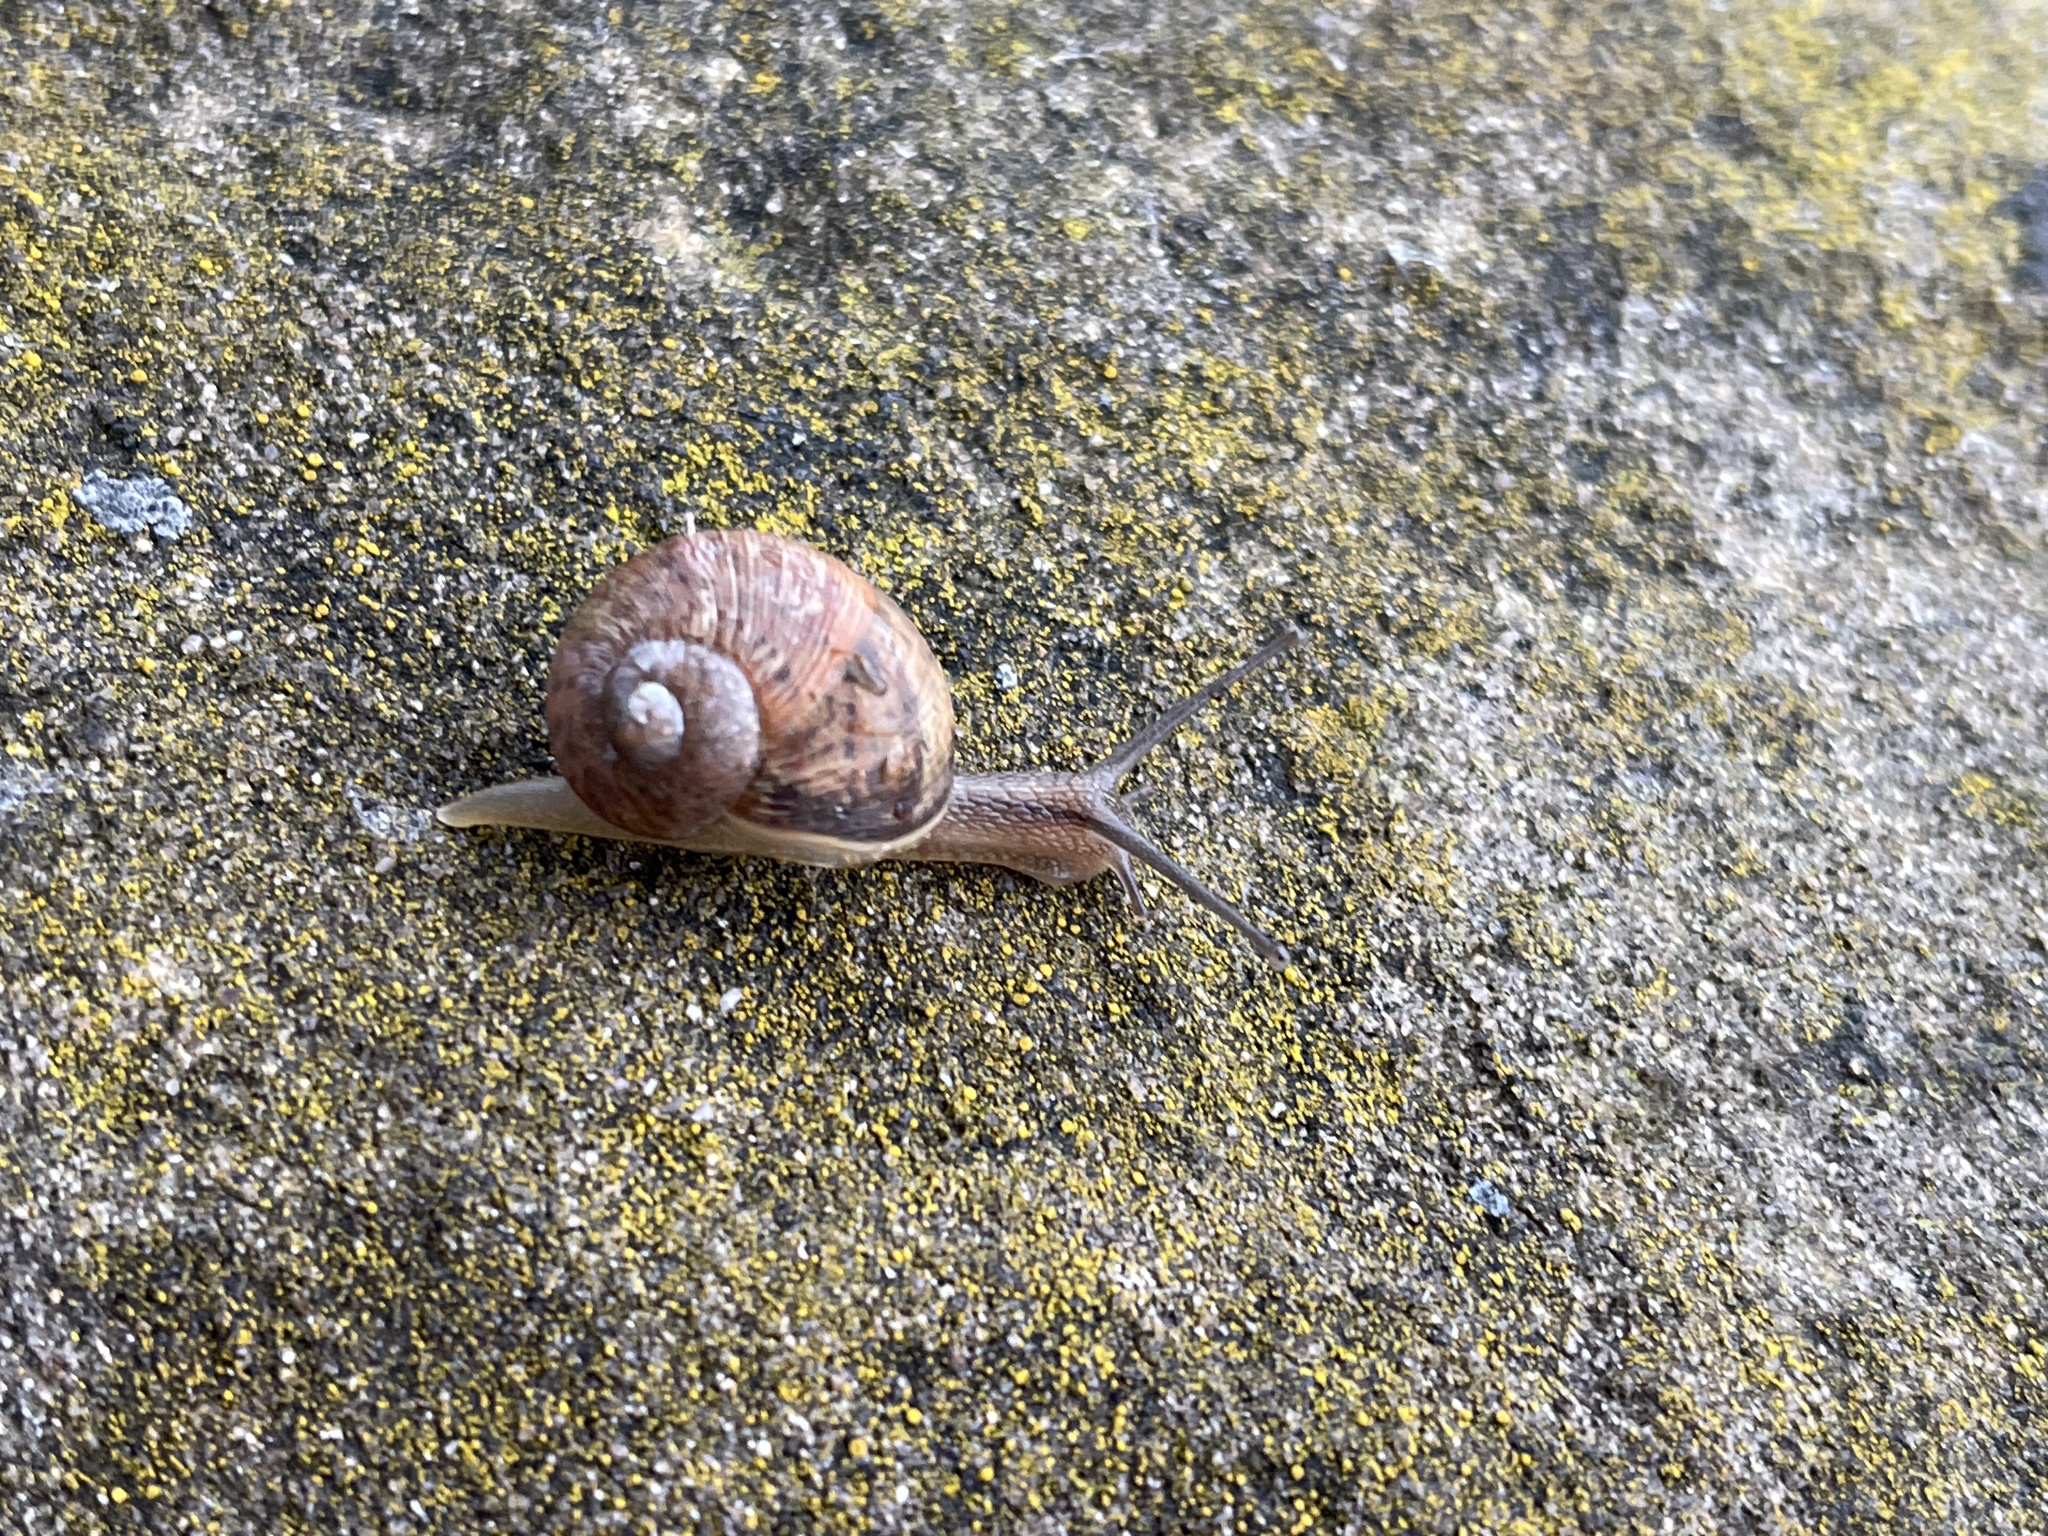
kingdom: Animalia
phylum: Mollusca
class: Gastropoda
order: Stylommatophora
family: Helicidae
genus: Cornu
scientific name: Cornu aspersum
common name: Brown garden snail
